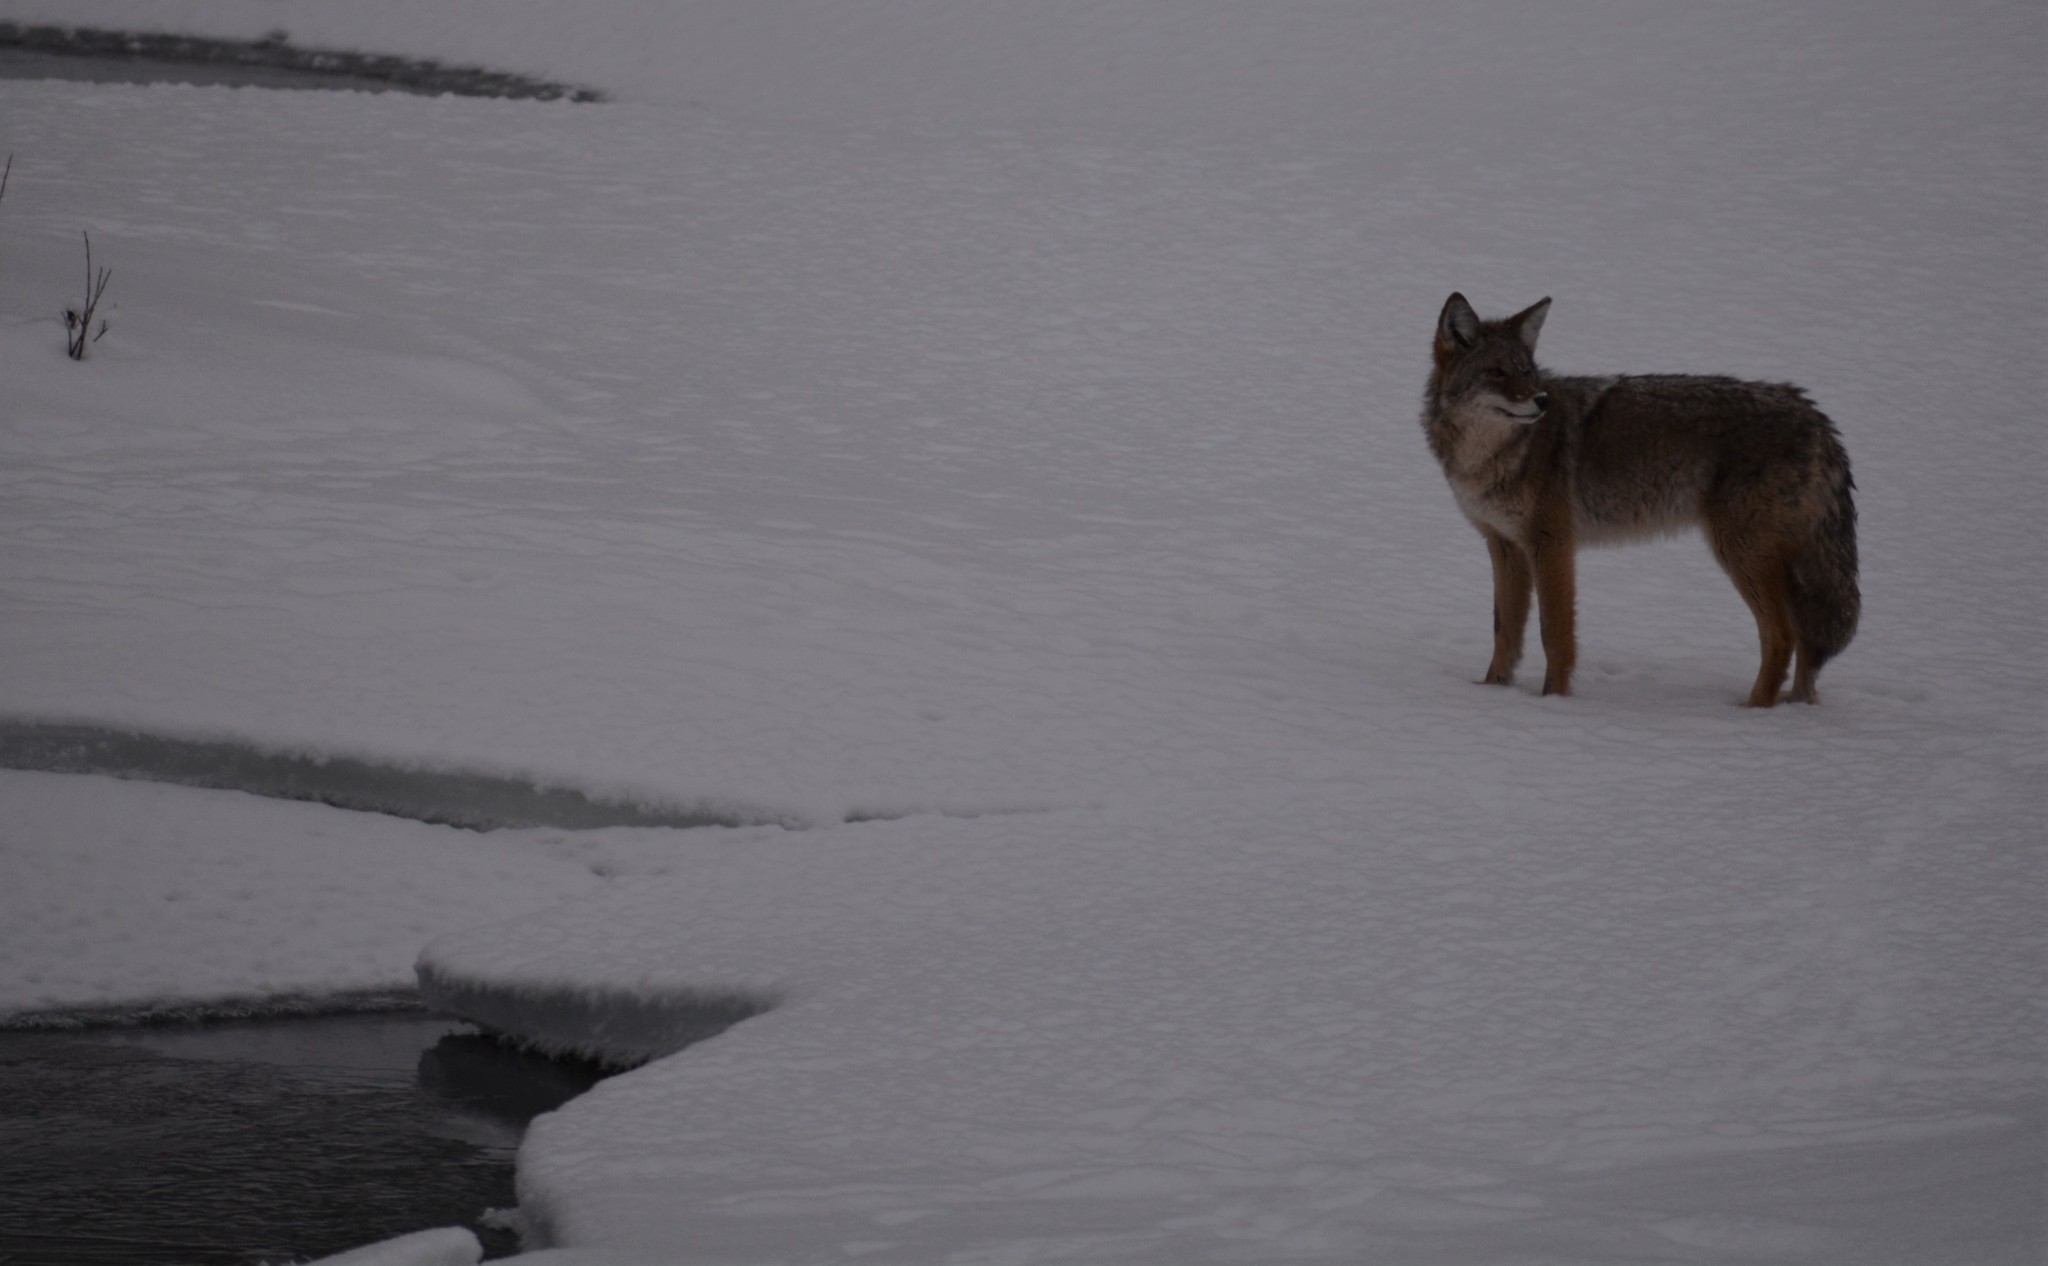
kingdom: Animalia
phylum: Chordata
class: Mammalia
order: Carnivora
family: Canidae
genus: Canis
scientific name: Canis latrans
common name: Coyote
